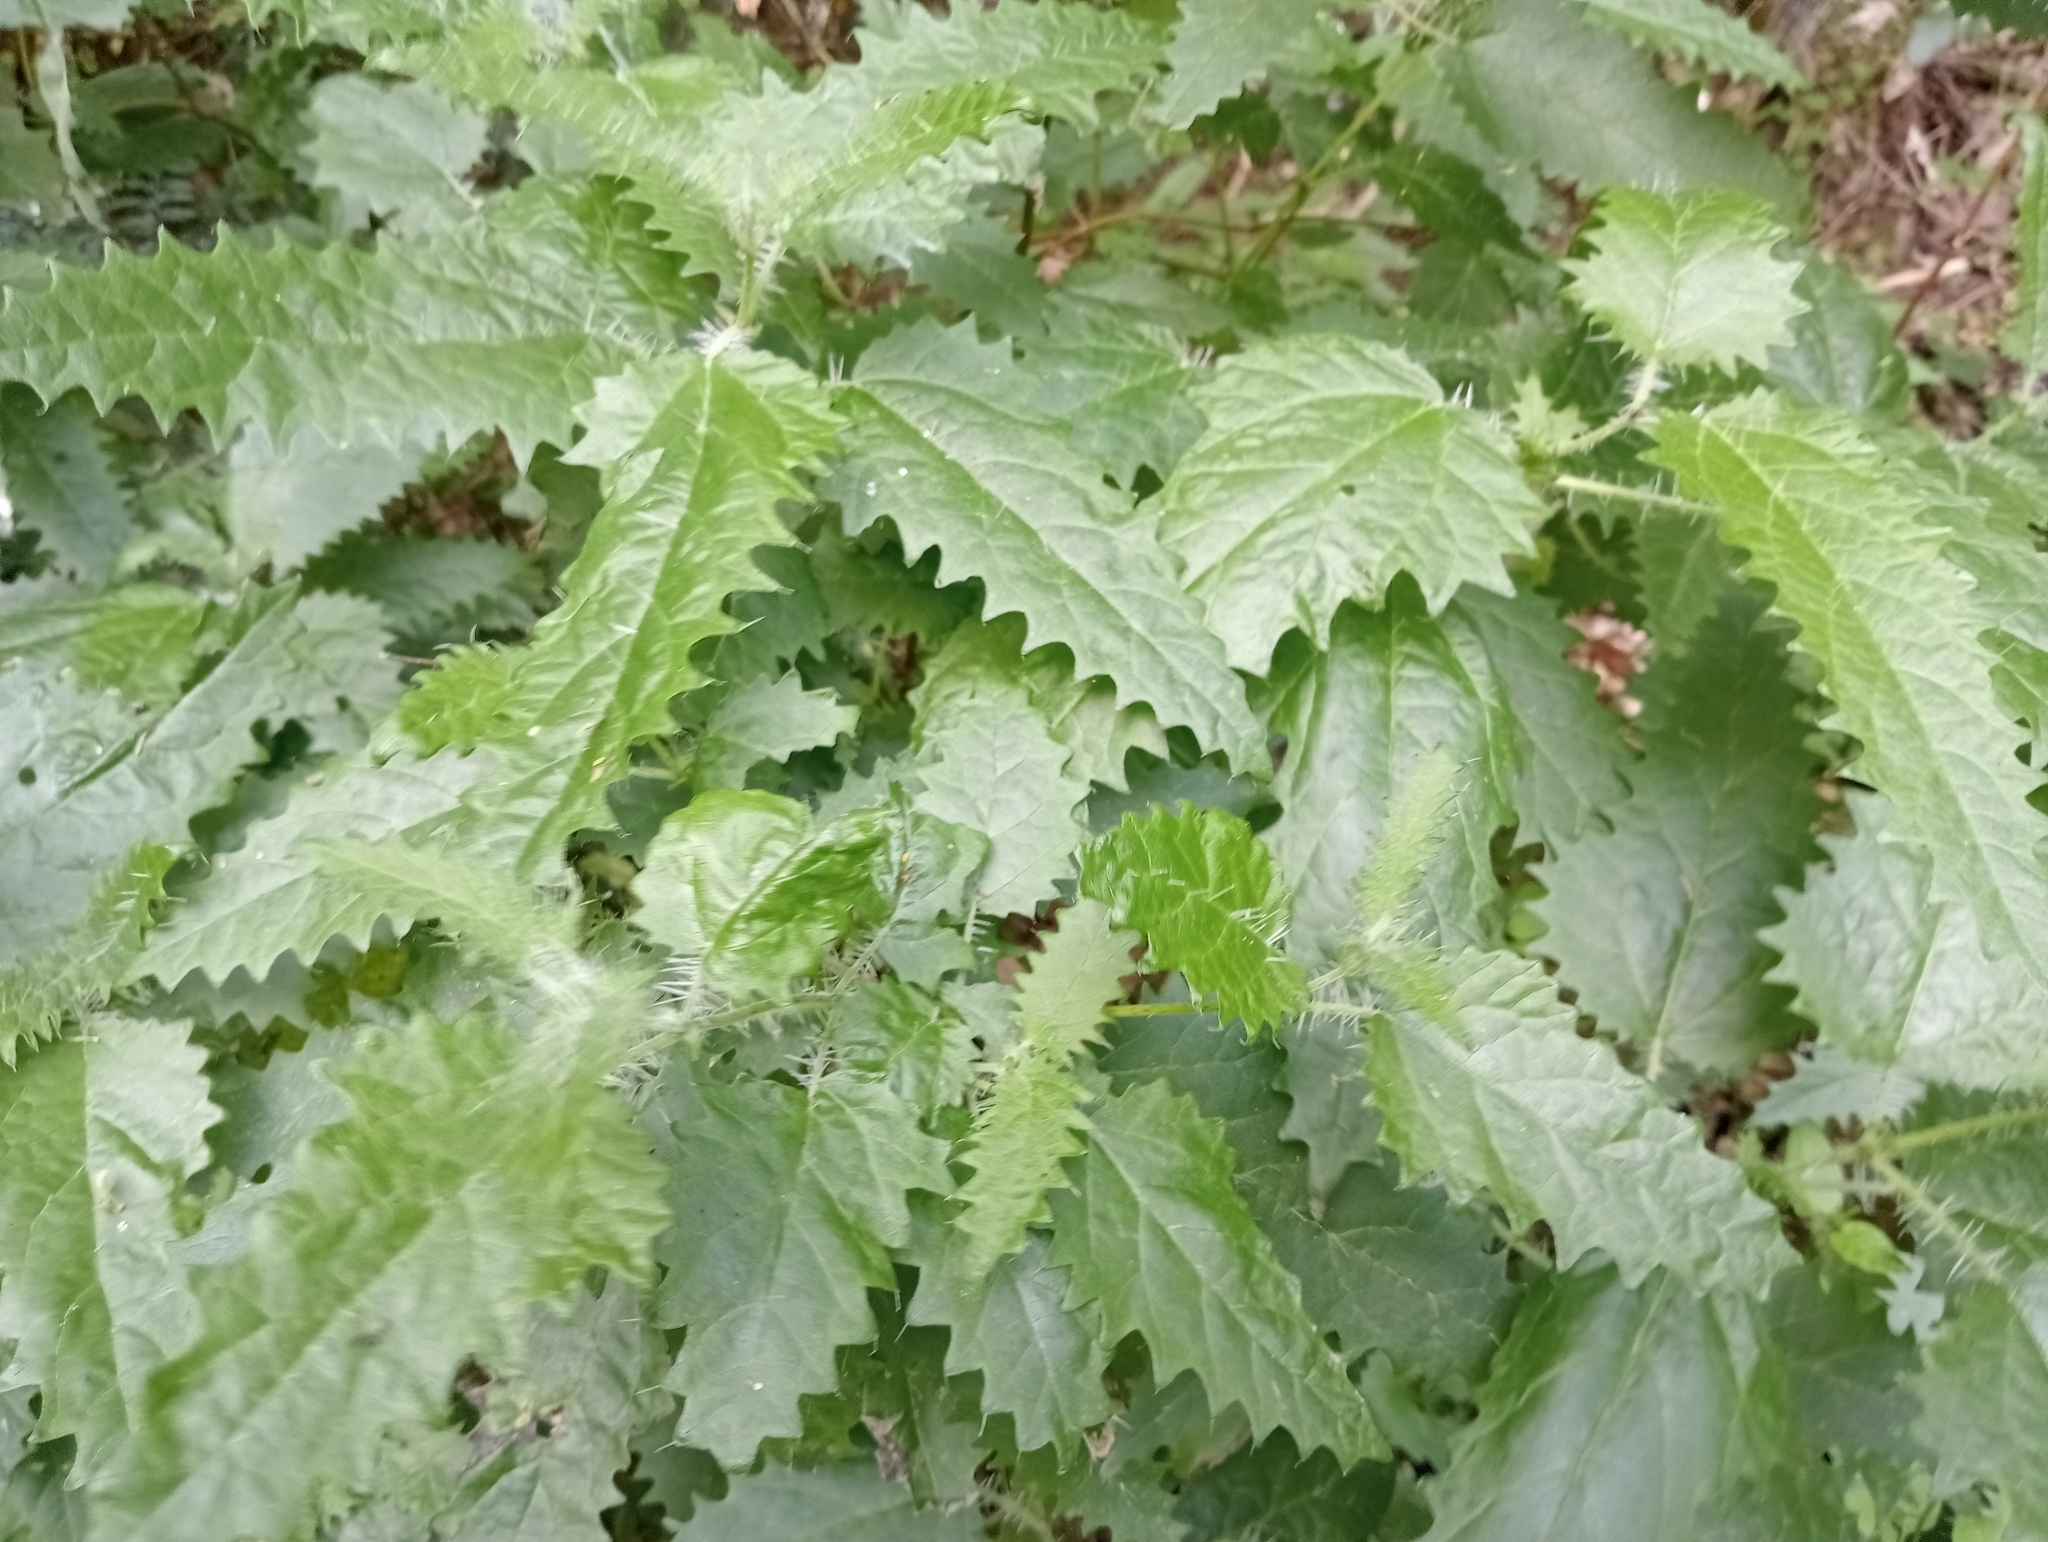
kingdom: Plantae
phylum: Tracheophyta
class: Magnoliopsida
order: Rosales
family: Urticaceae
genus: Urtica
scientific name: Urtica ferox
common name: Tree nettle
